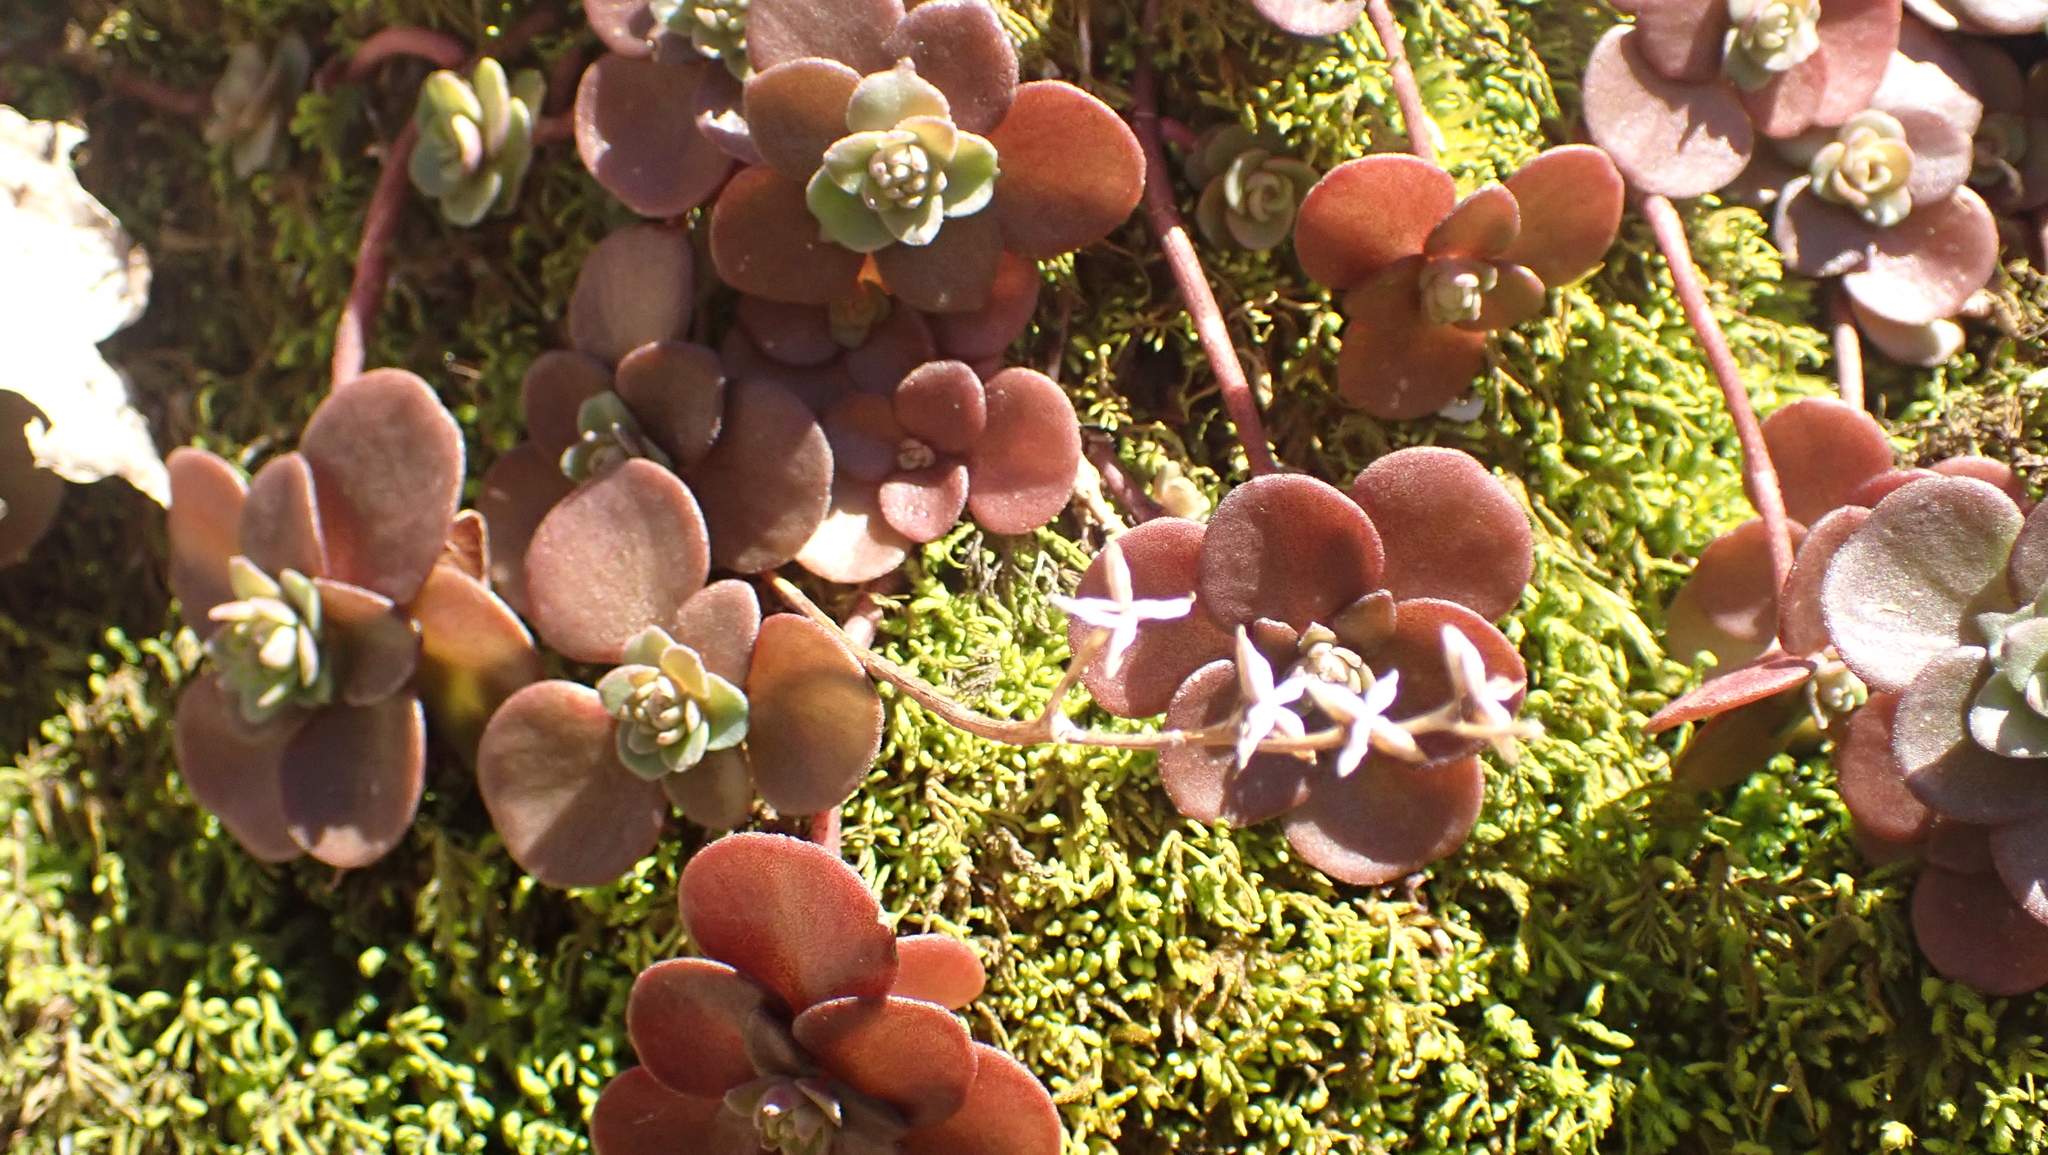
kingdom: Plantae
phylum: Tracheophyta
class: Magnoliopsida
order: Saxifragales
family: Crassulaceae
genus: Sedum
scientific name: Sedum ternatum
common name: Wild stonecrop
